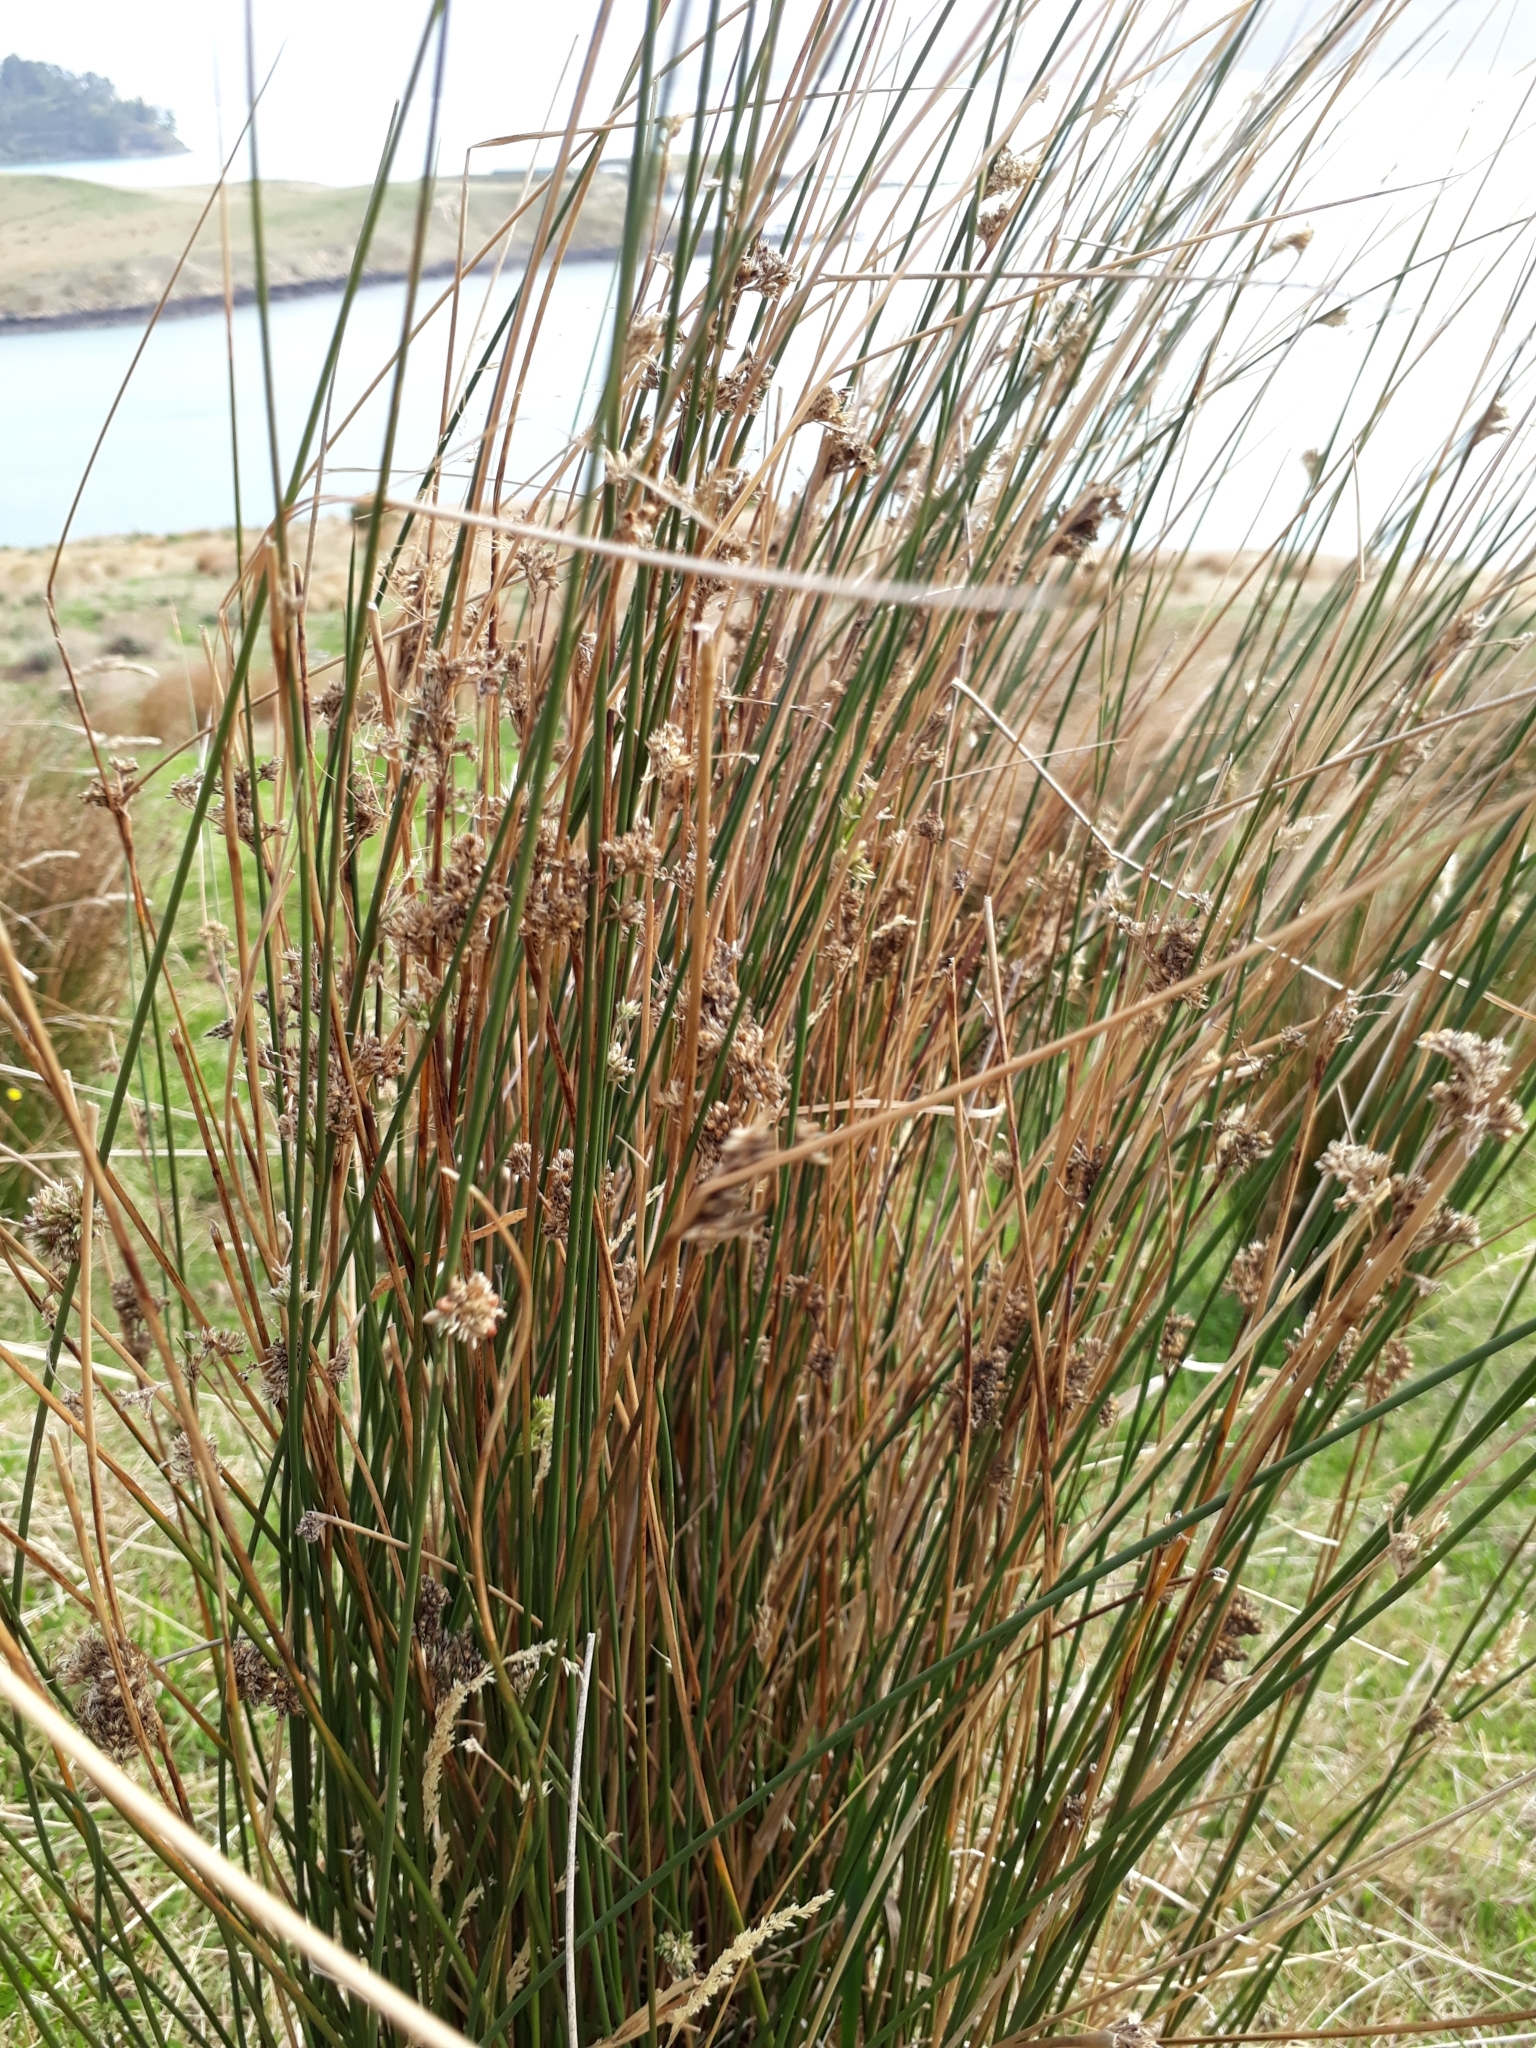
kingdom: Plantae
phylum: Tracheophyta
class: Liliopsida
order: Poales
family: Juncaceae
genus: Juncus
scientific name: Juncus edgariae
